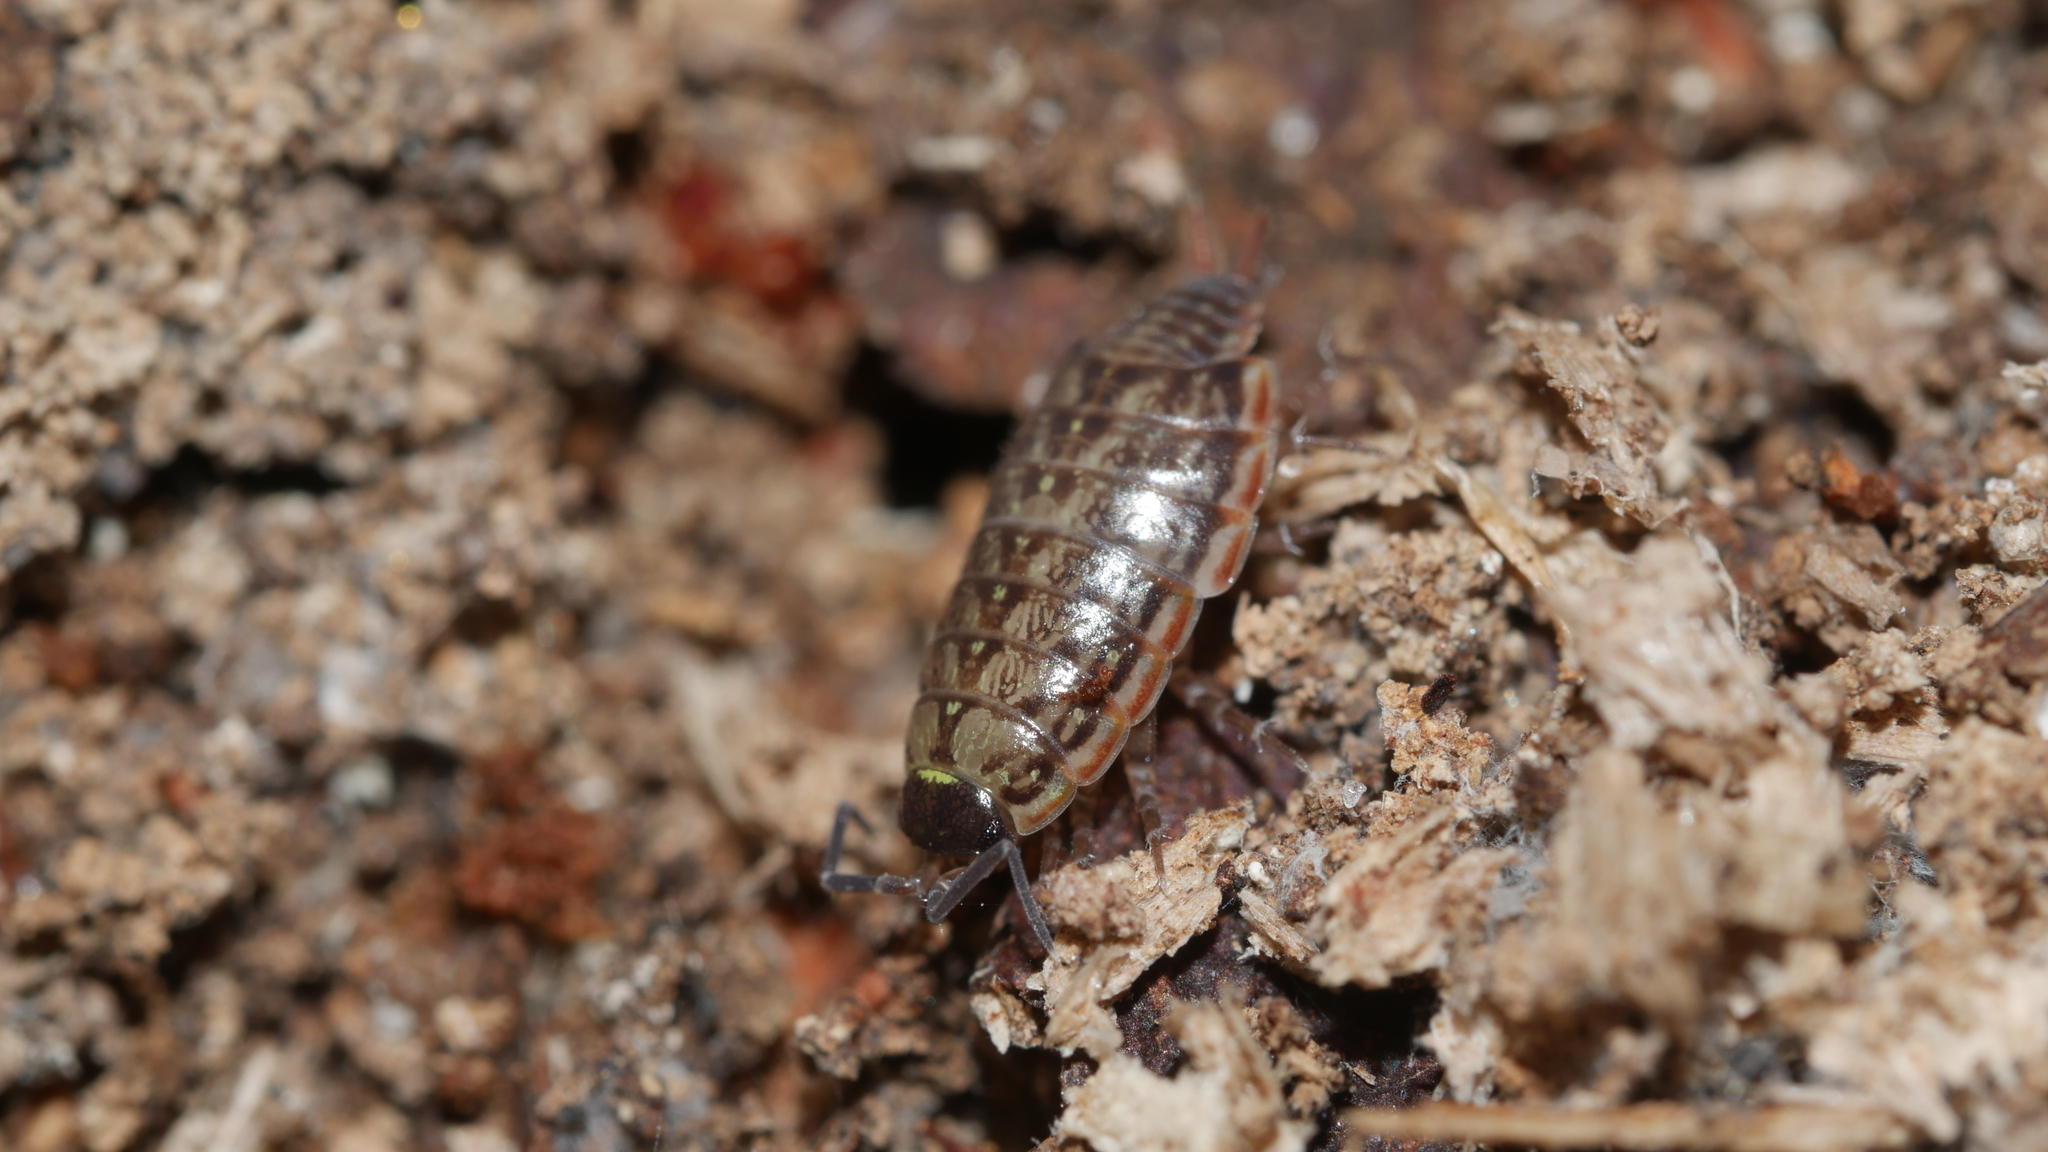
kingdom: Animalia
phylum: Arthropoda
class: Malacostraca
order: Isopoda
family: Philosciidae
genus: Philoscia
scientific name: Philoscia muscorum
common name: Common striped woodlouse
